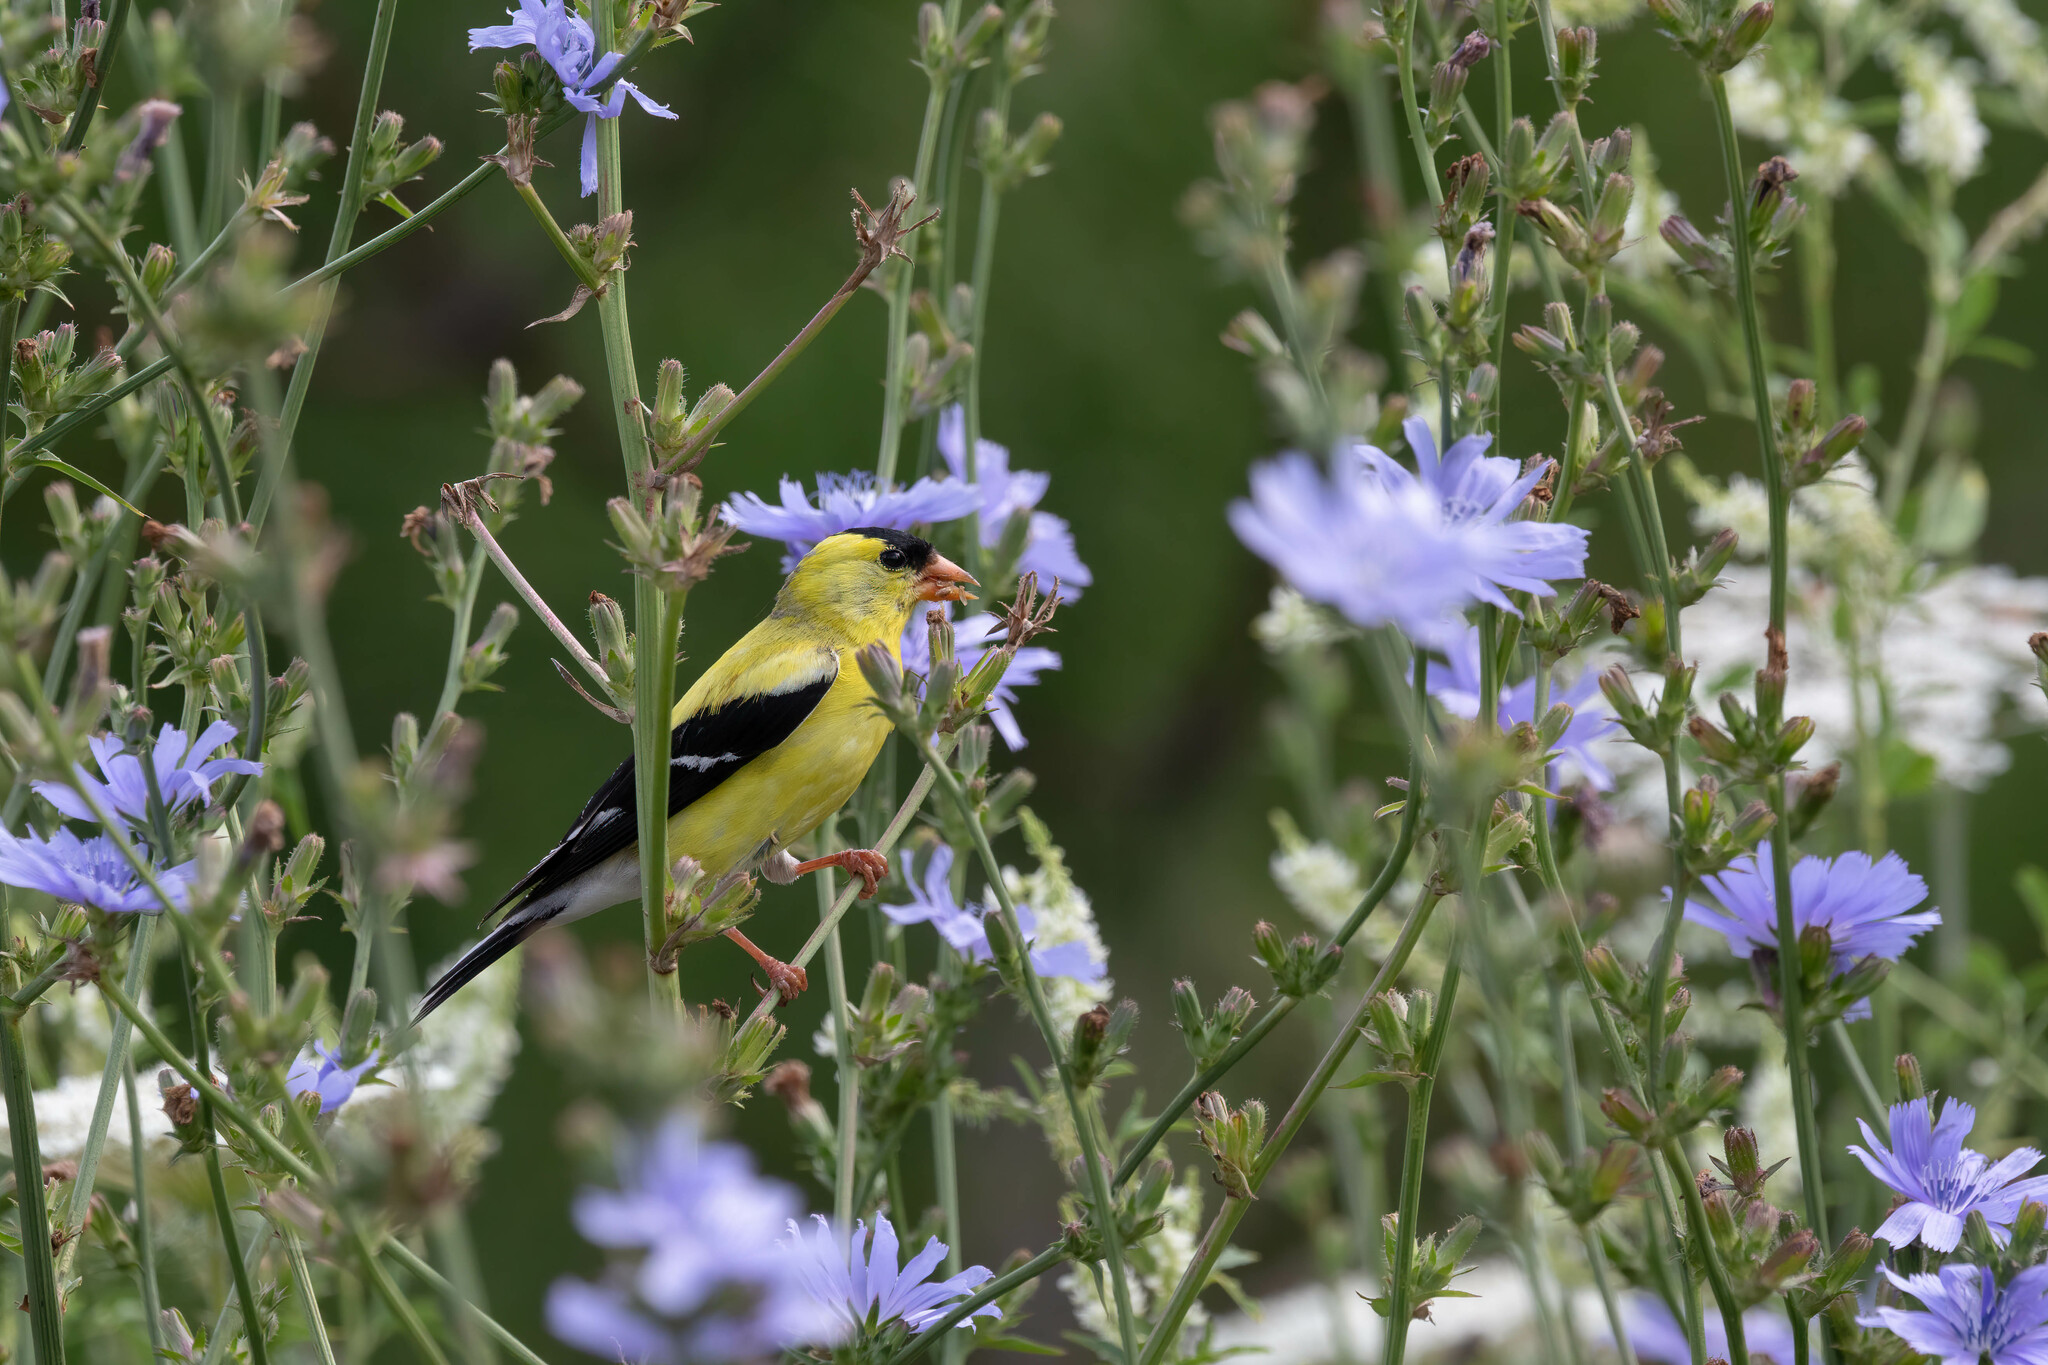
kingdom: Animalia
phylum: Chordata
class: Aves
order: Passeriformes
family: Fringillidae
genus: Spinus
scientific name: Spinus tristis
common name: American goldfinch
